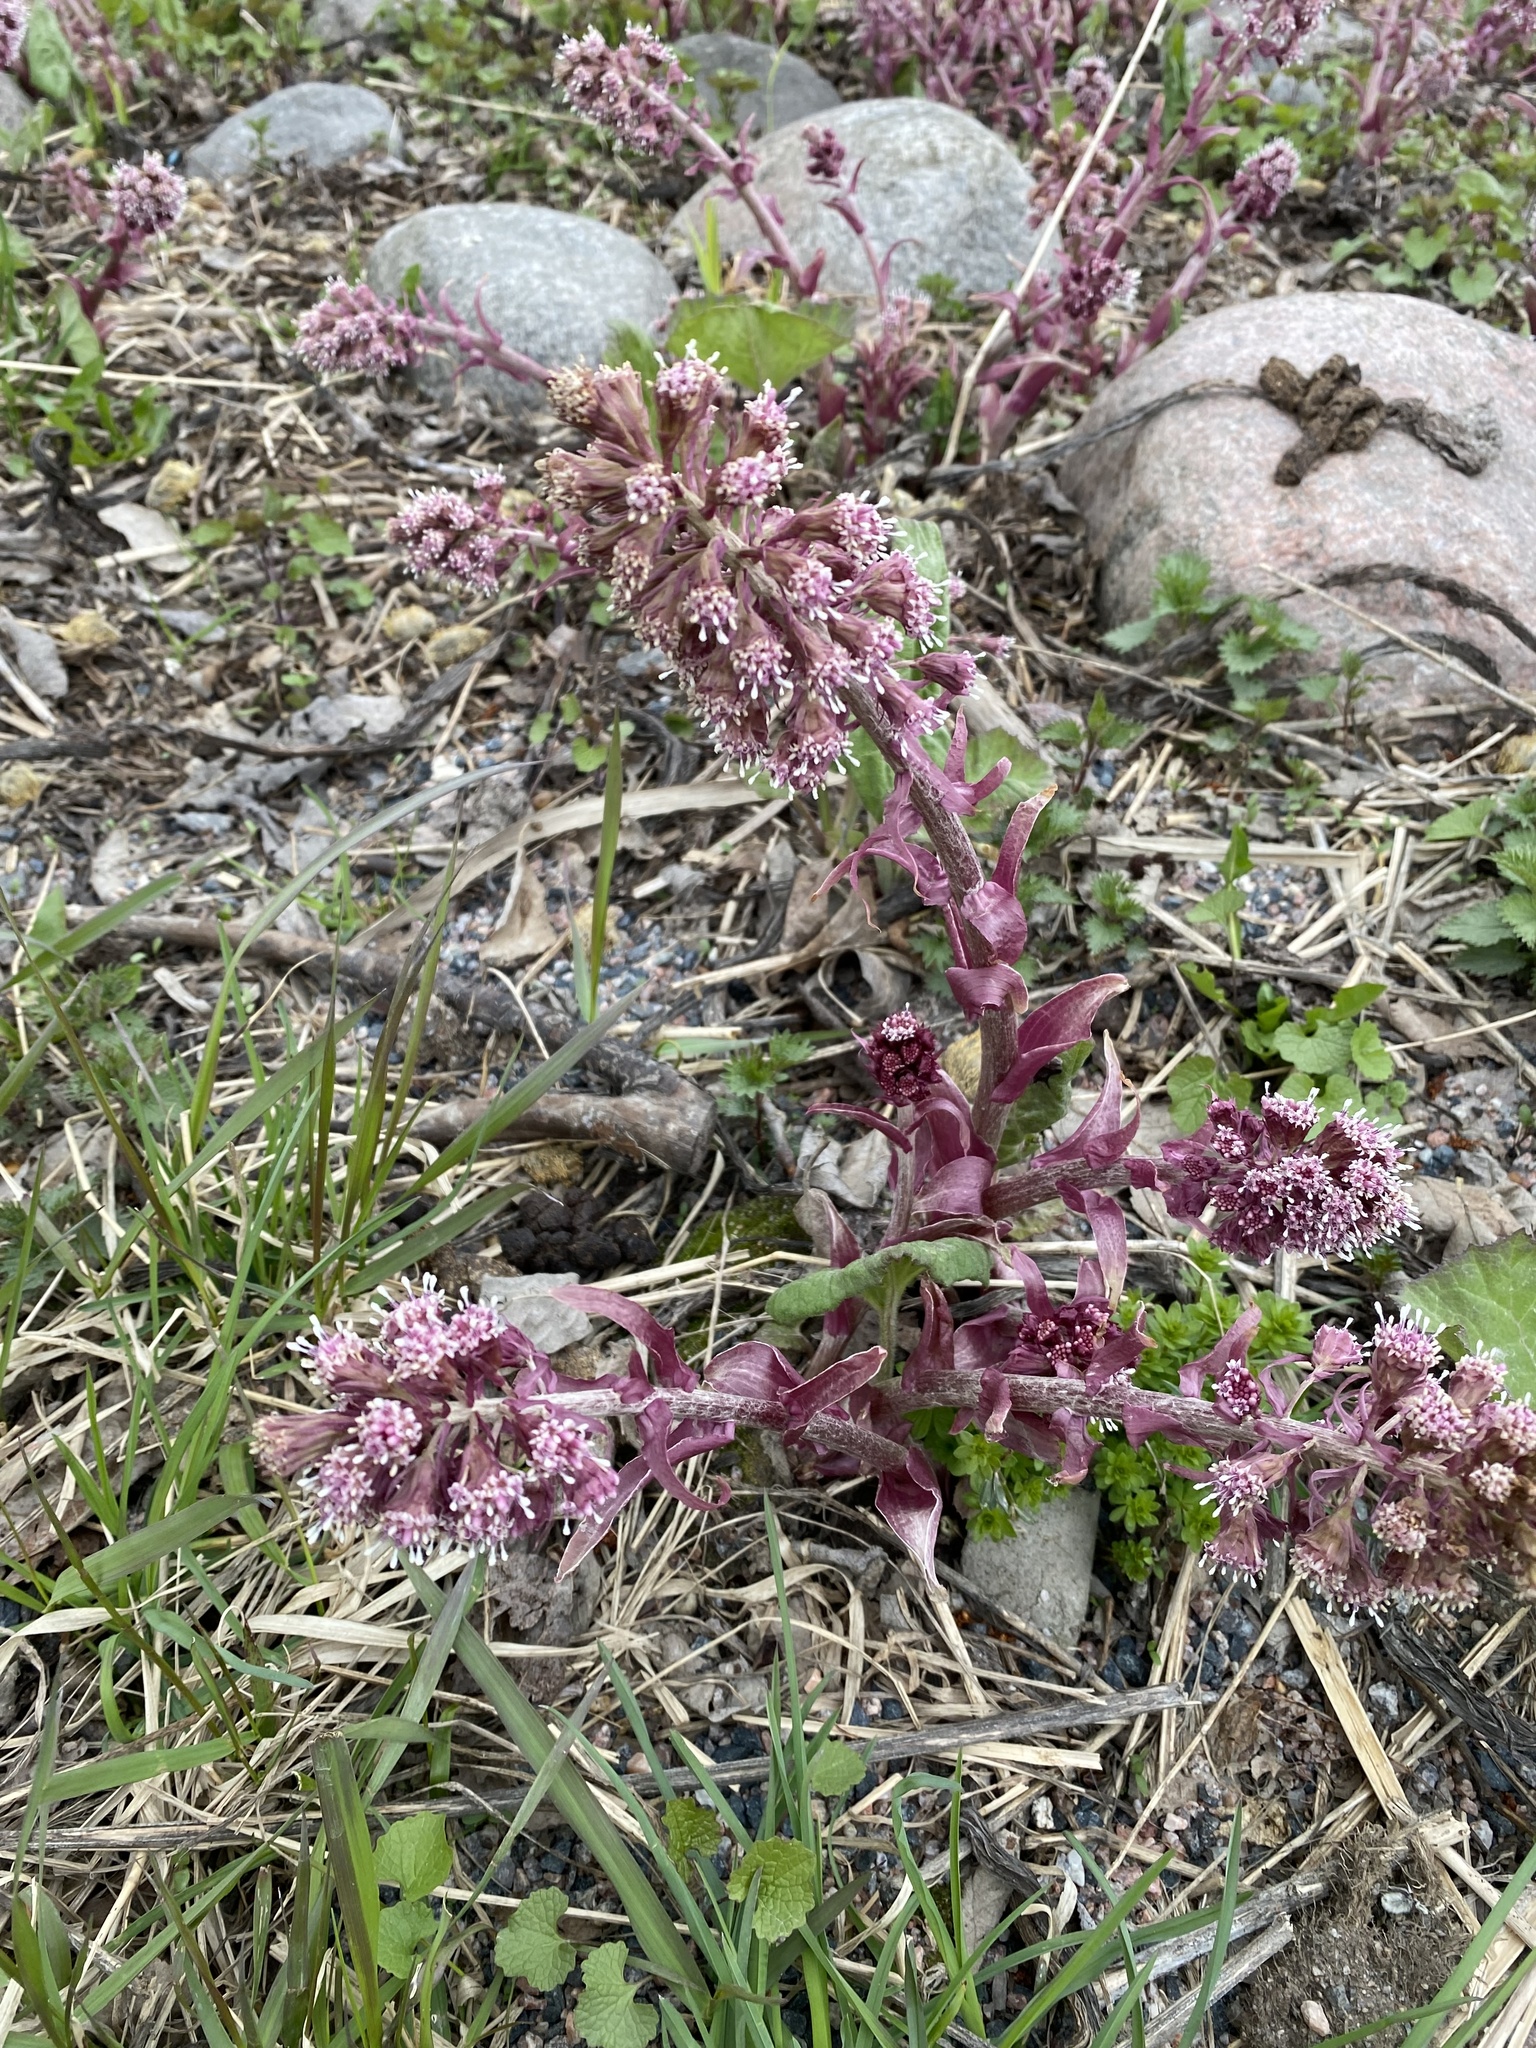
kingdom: Plantae
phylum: Tracheophyta
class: Magnoliopsida
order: Asterales
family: Asteraceae
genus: Petasites
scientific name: Petasites hybridus
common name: Butterbur
